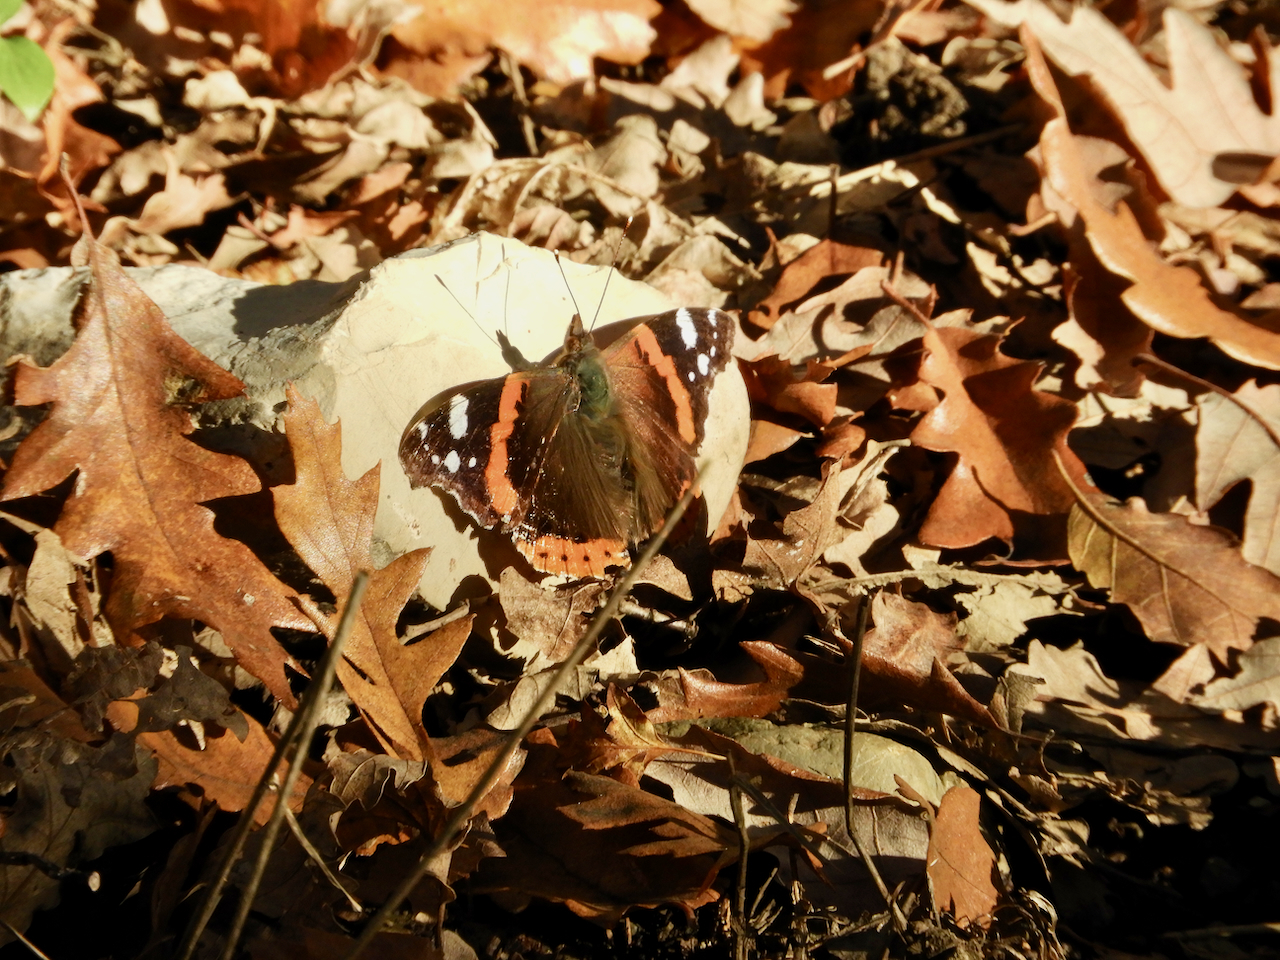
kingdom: Animalia
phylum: Arthropoda
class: Insecta
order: Lepidoptera
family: Nymphalidae
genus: Vanessa
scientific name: Vanessa atalanta
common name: Red admiral
